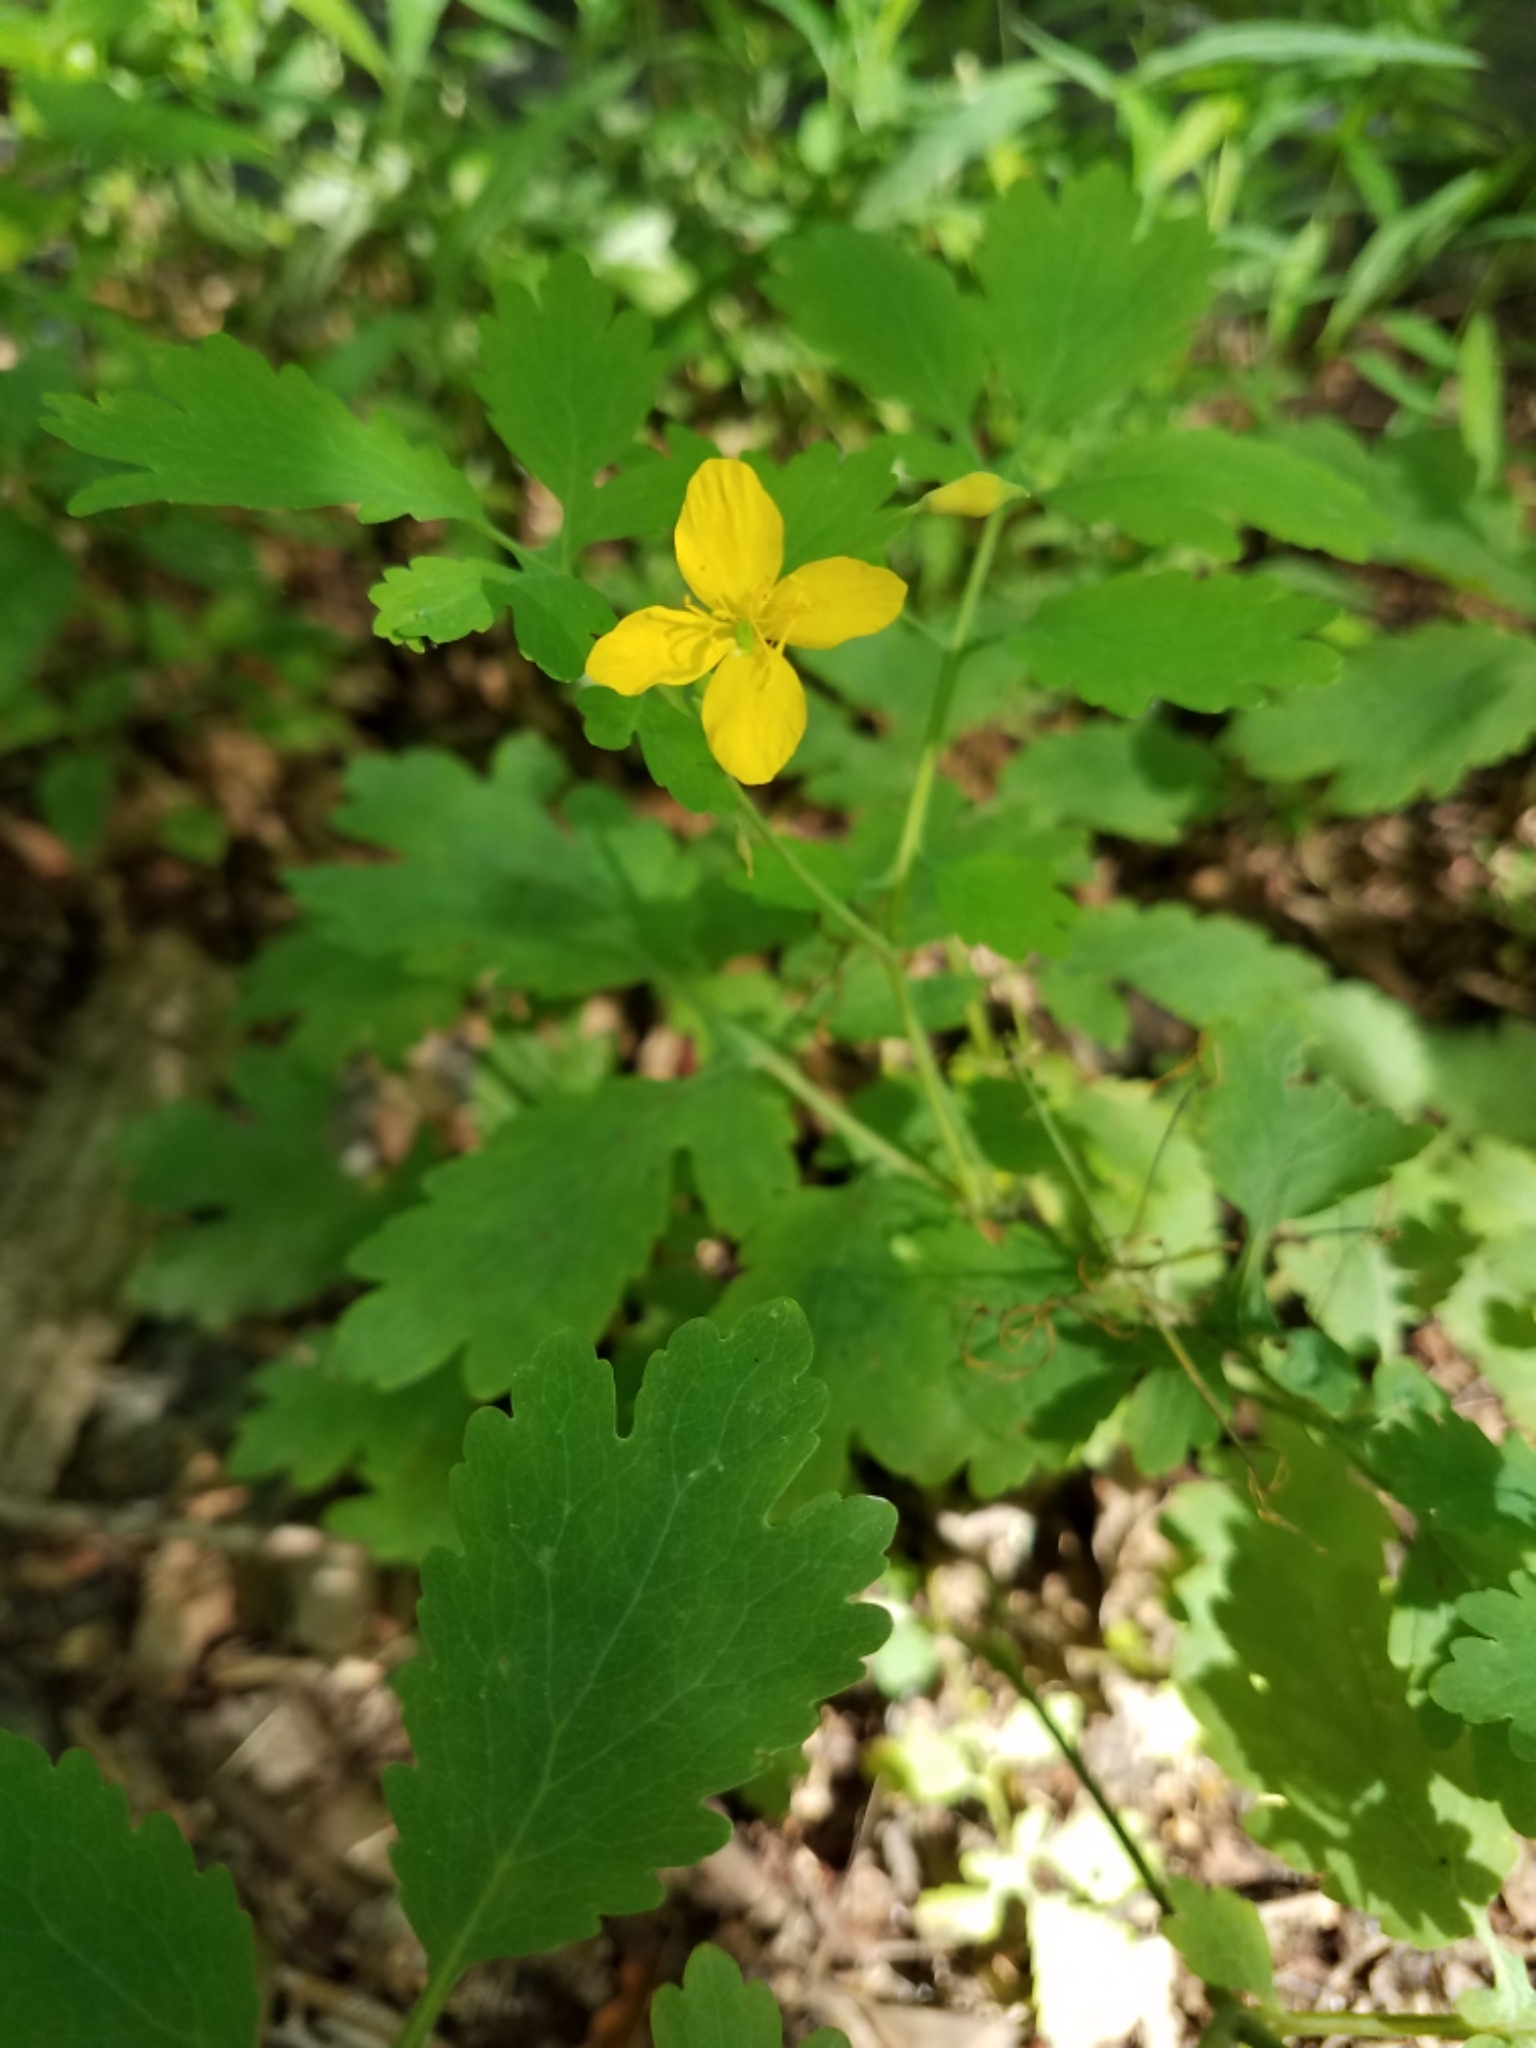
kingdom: Plantae
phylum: Tracheophyta
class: Magnoliopsida
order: Ranunculales
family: Papaveraceae
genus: Chelidonium
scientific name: Chelidonium majus
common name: Greater celandine
